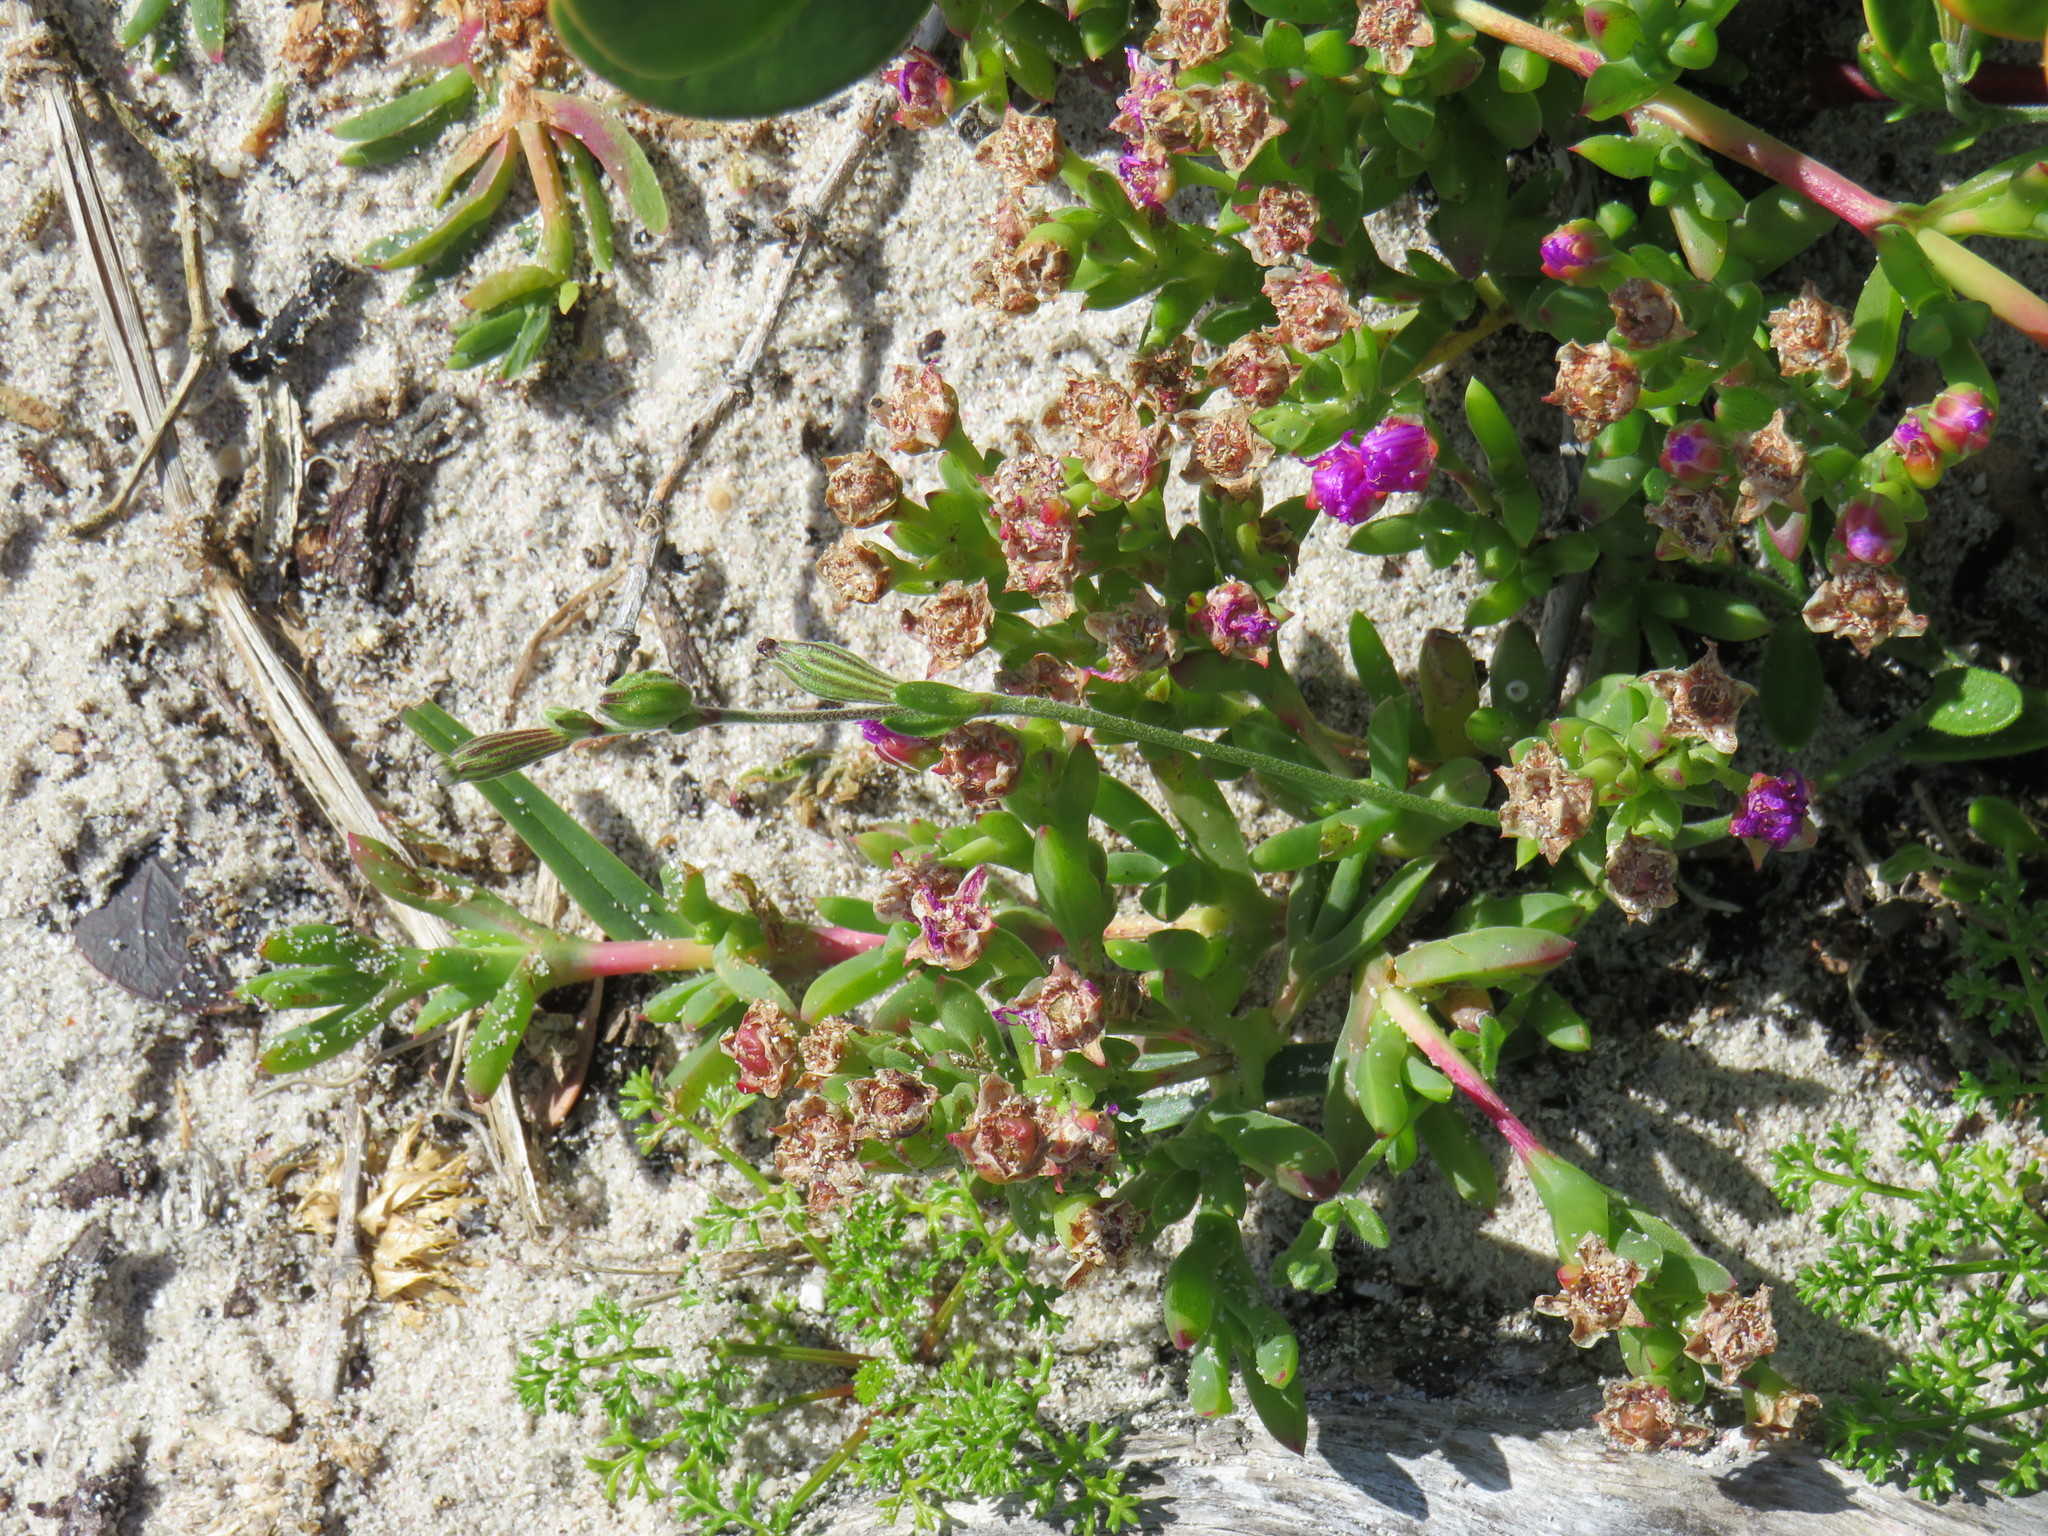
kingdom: Plantae
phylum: Tracheophyta
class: Magnoliopsida
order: Caryophyllales
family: Caryophyllaceae
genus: Silene
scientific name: Silene undulata
